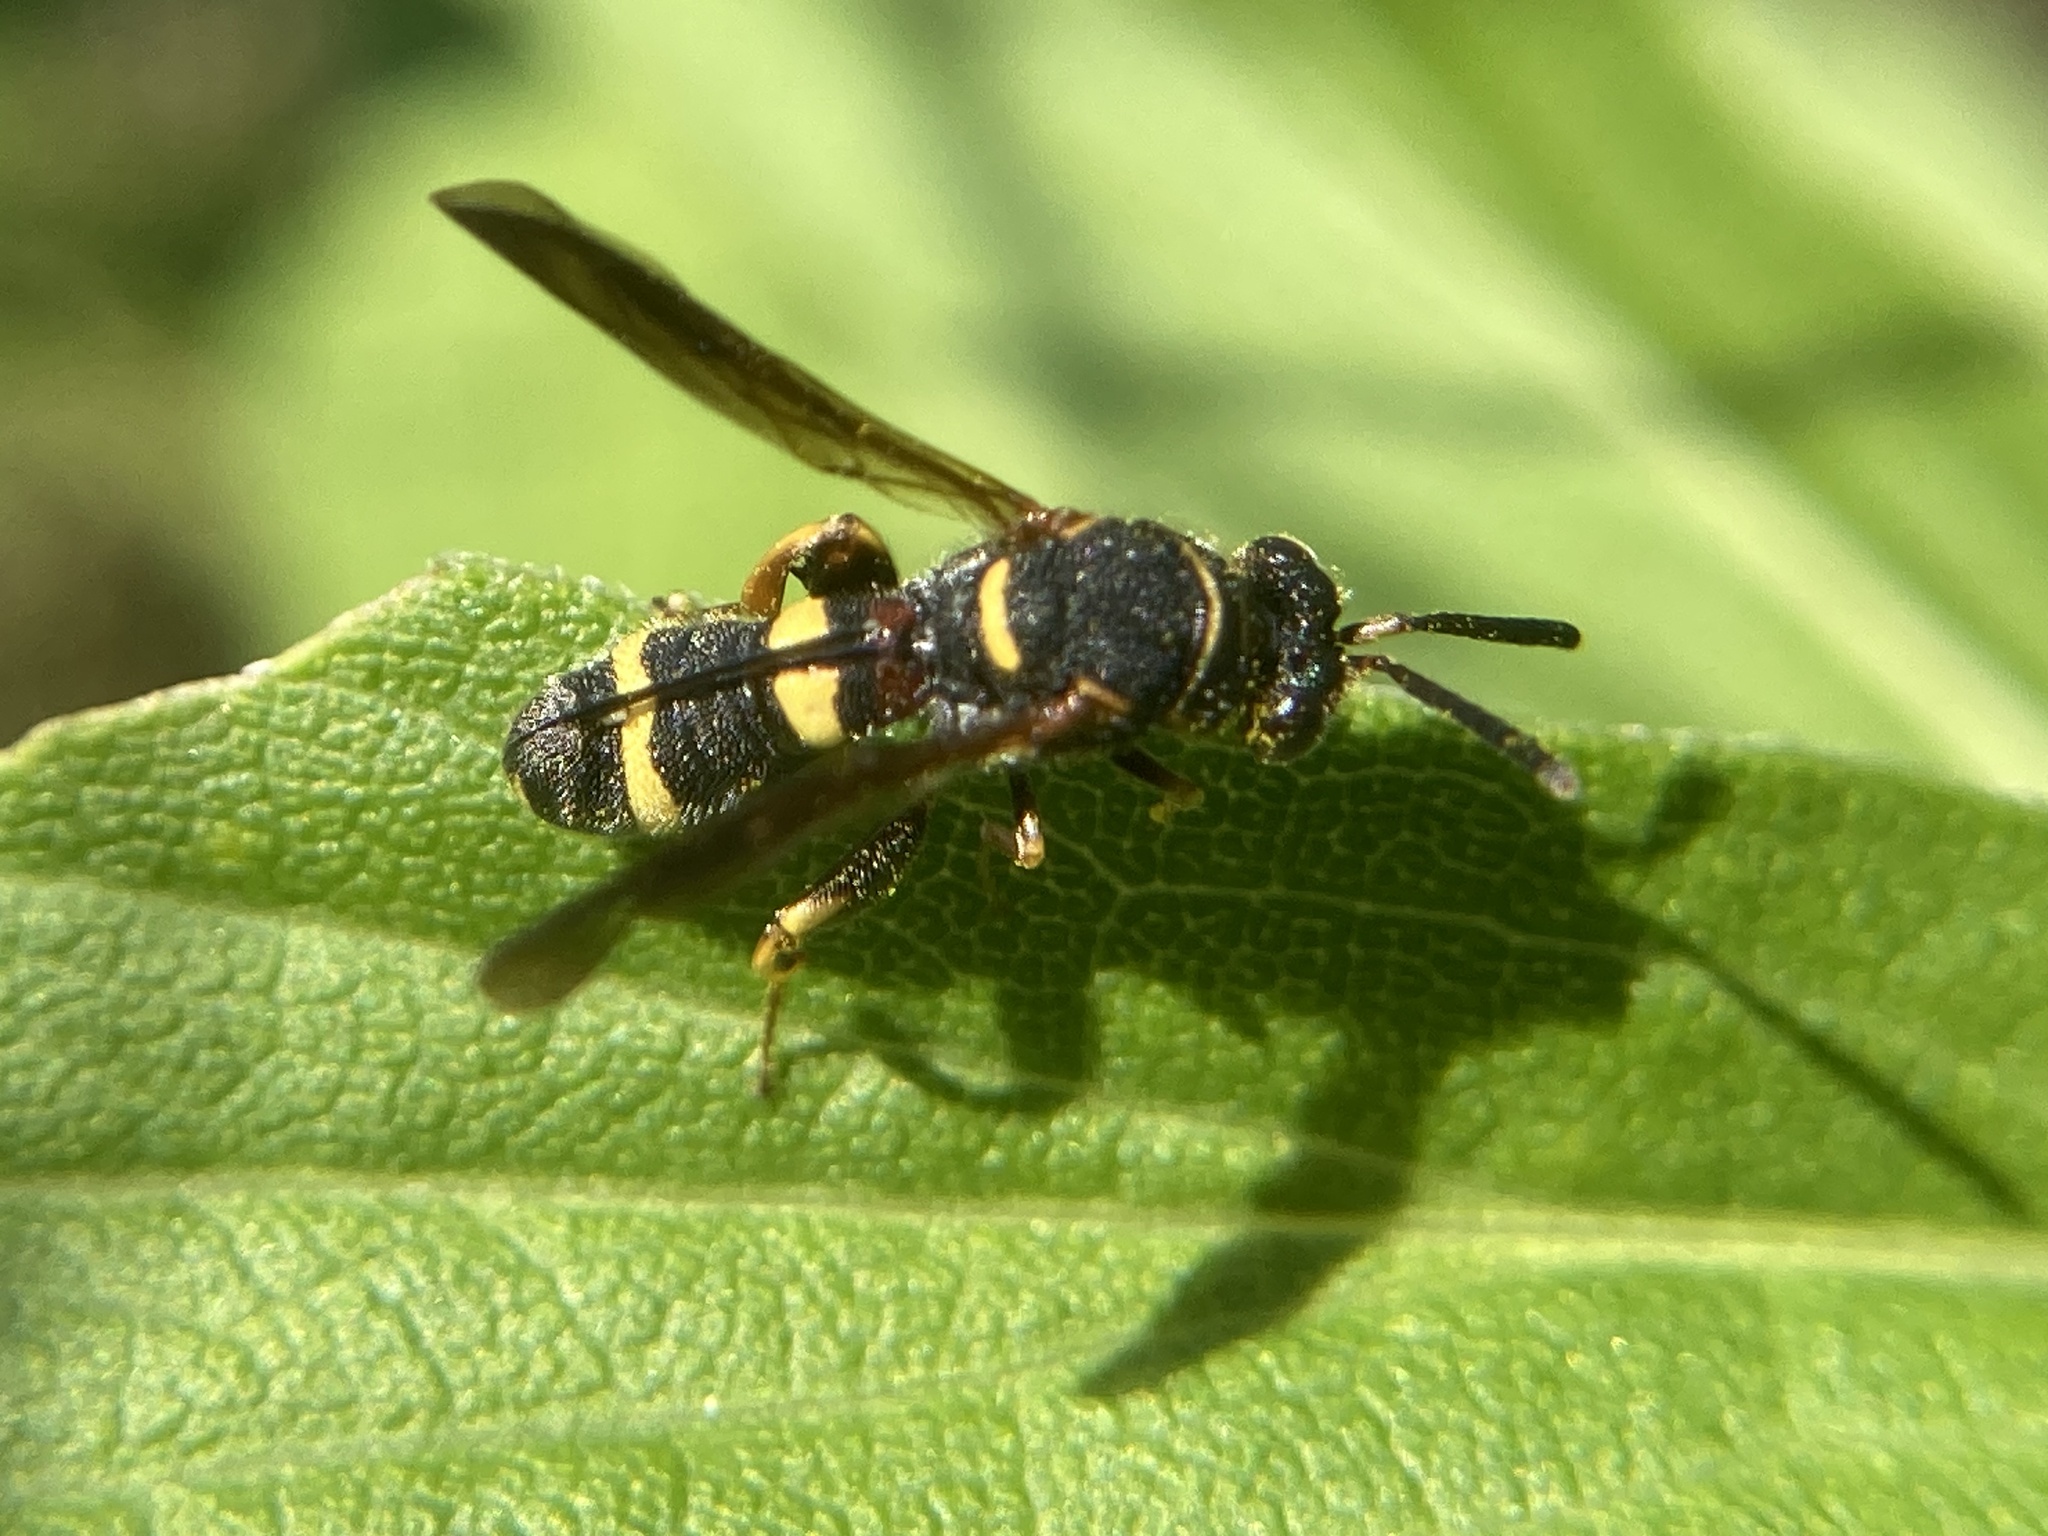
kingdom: Animalia
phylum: Arthropoda
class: Insecta
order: Hymenoptera
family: Leucospidae
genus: Leucospis
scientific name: Leucospis affinis
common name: Wasp
